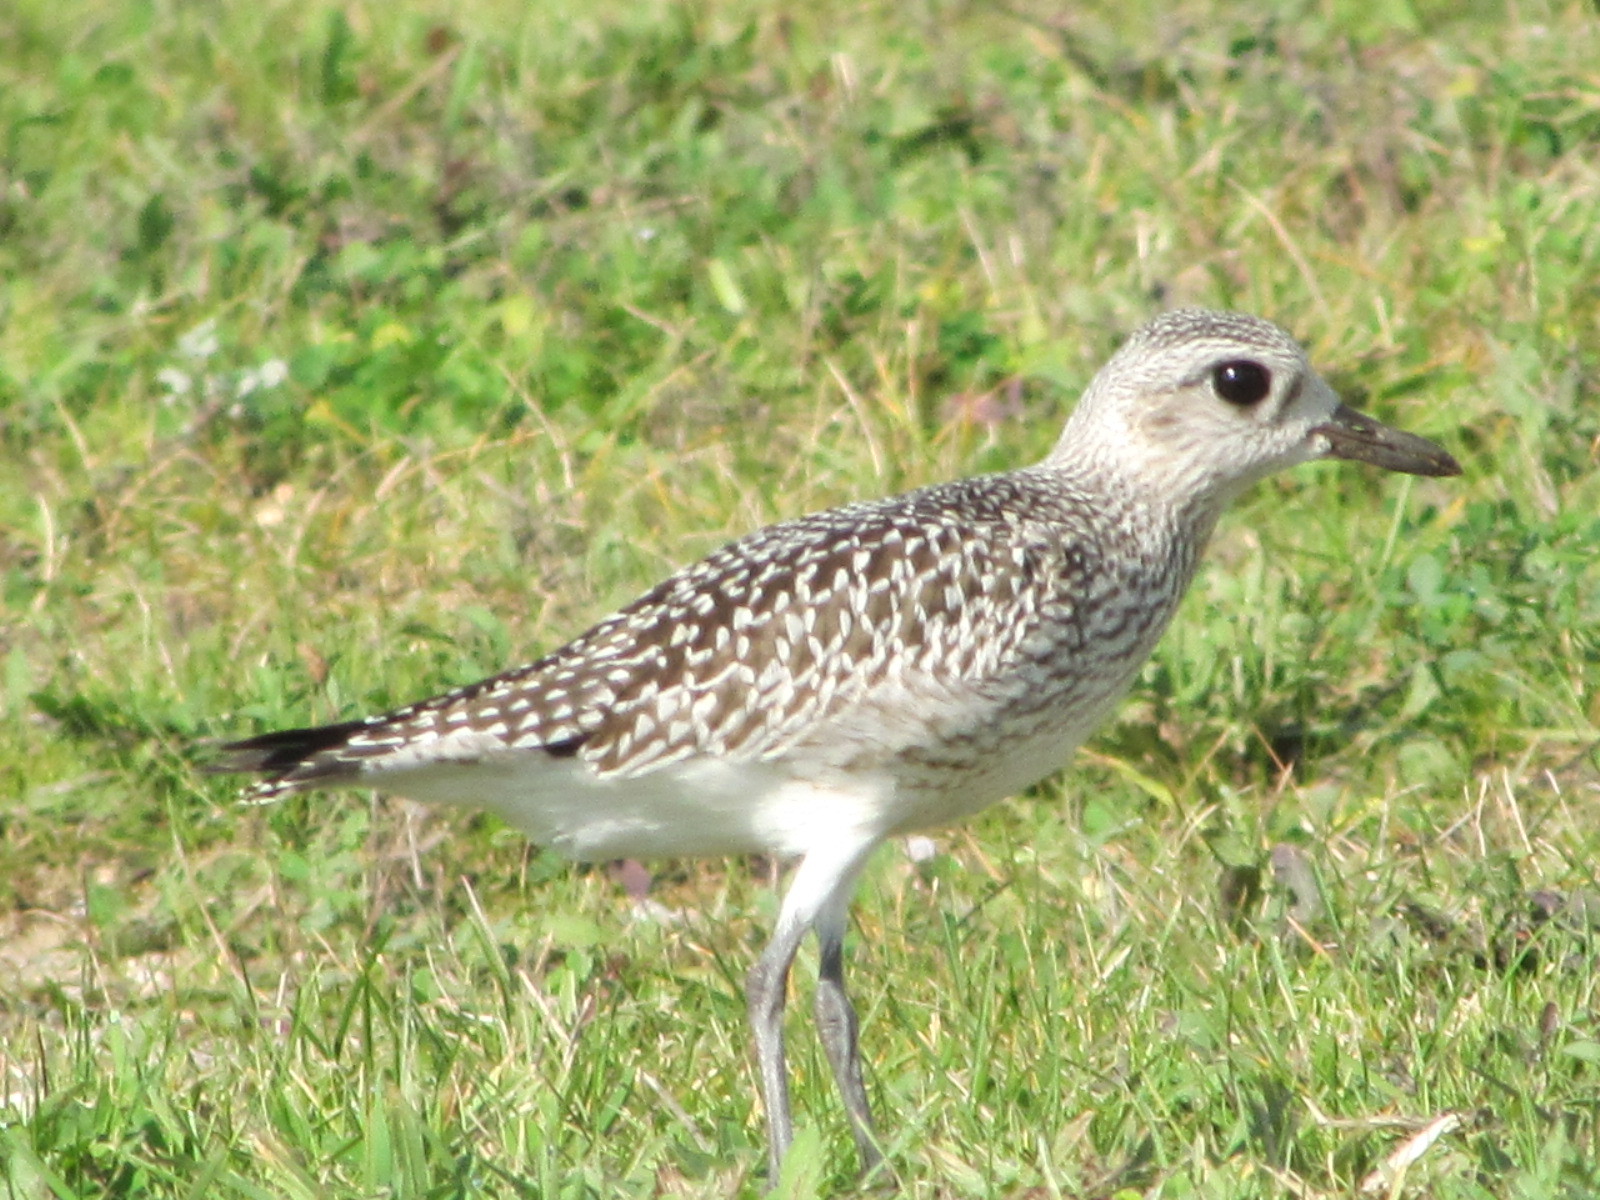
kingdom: Animalia
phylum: Chordata
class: Aves
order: Charadriiformes
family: Charadriidae
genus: Pluvialis
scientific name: Pluvialis squatarola
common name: Grey plover
